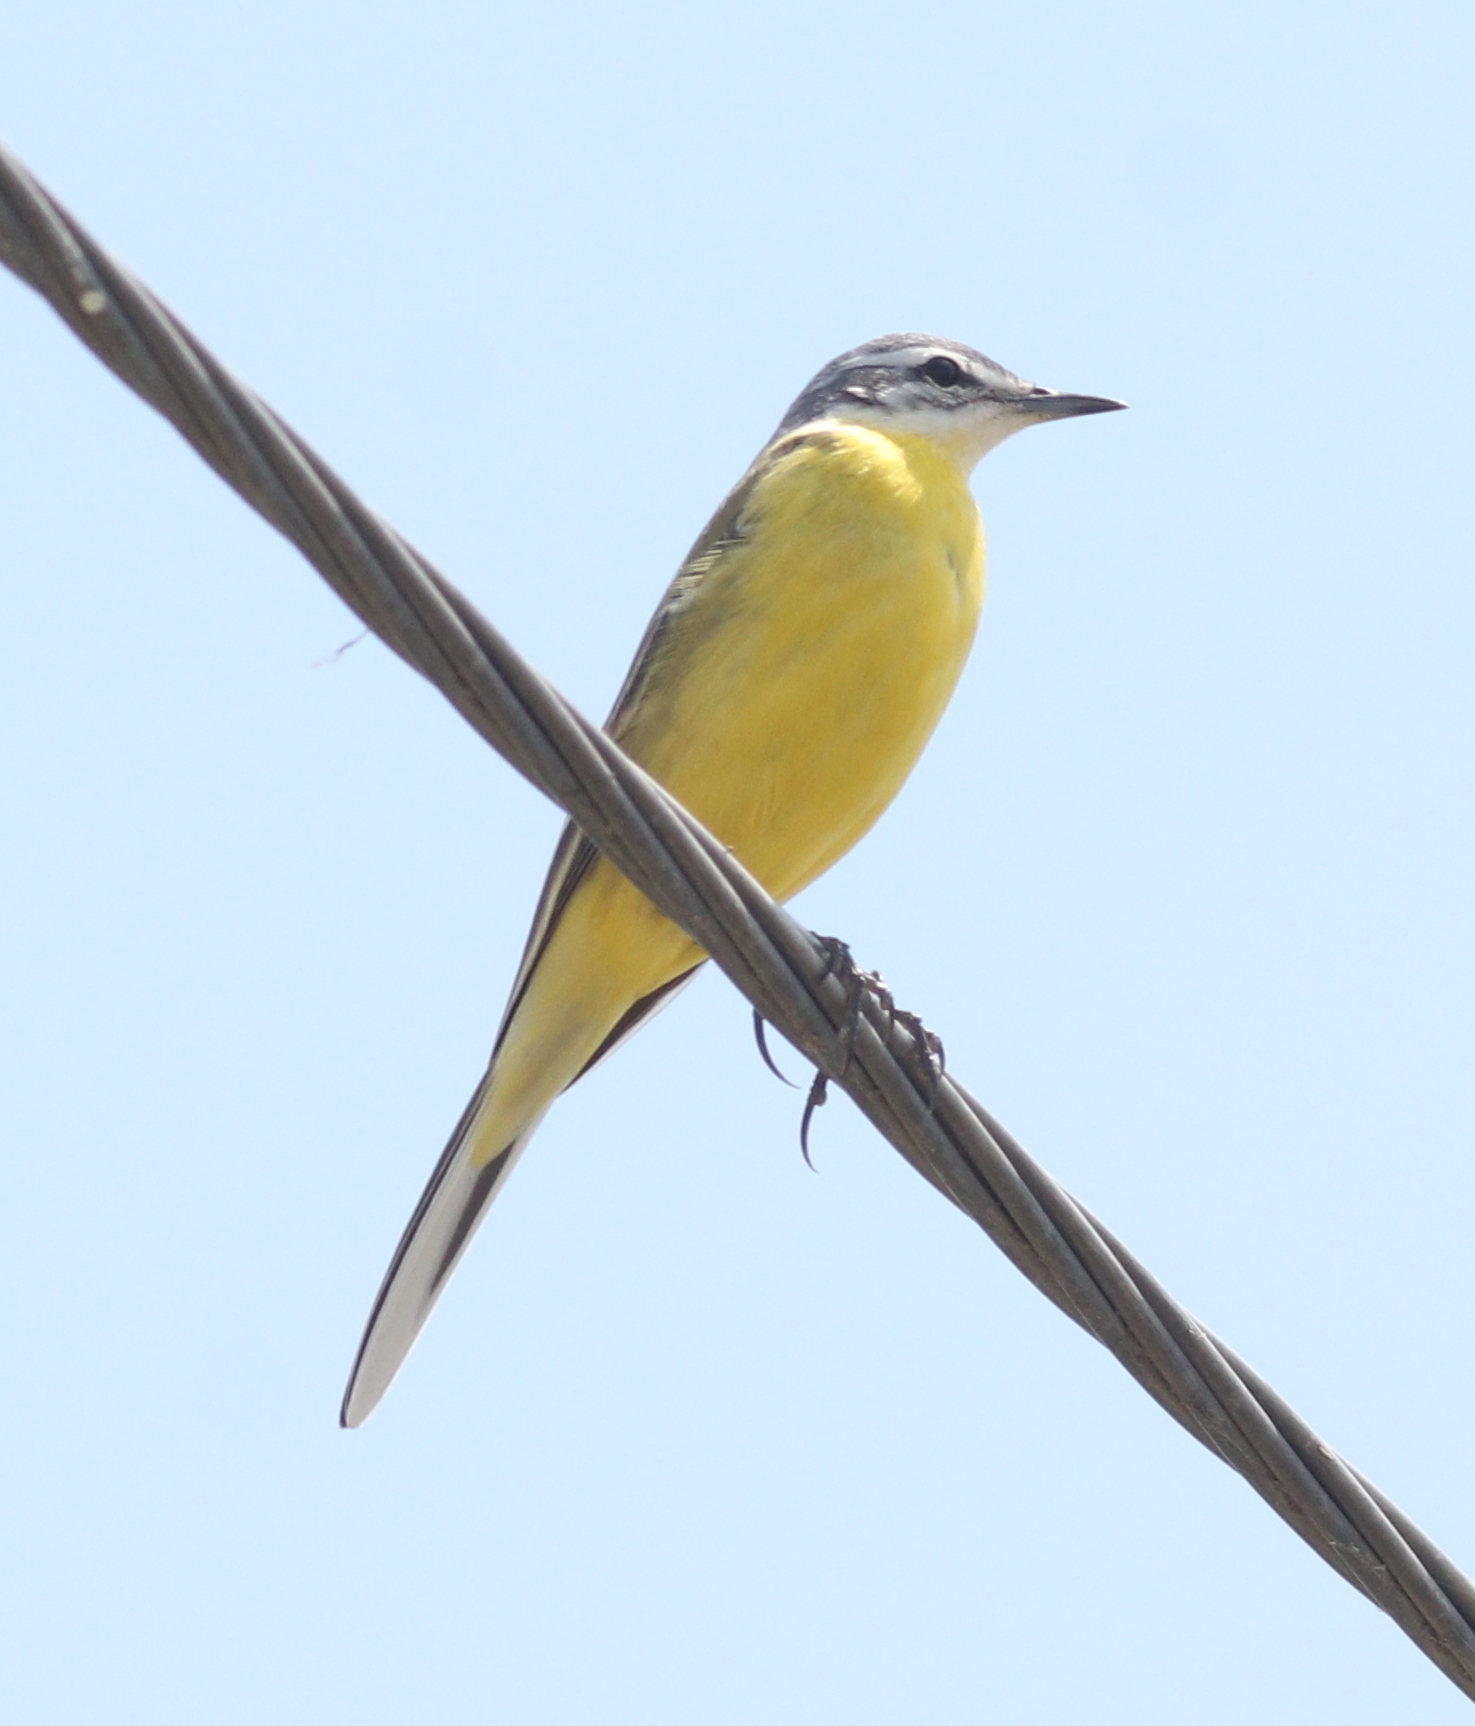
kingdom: Animalia
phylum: Chordata
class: Aves
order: Passeriformes
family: Motacillidae
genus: Motacilla
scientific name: Motacilla flava
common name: Western yellow wagtail
